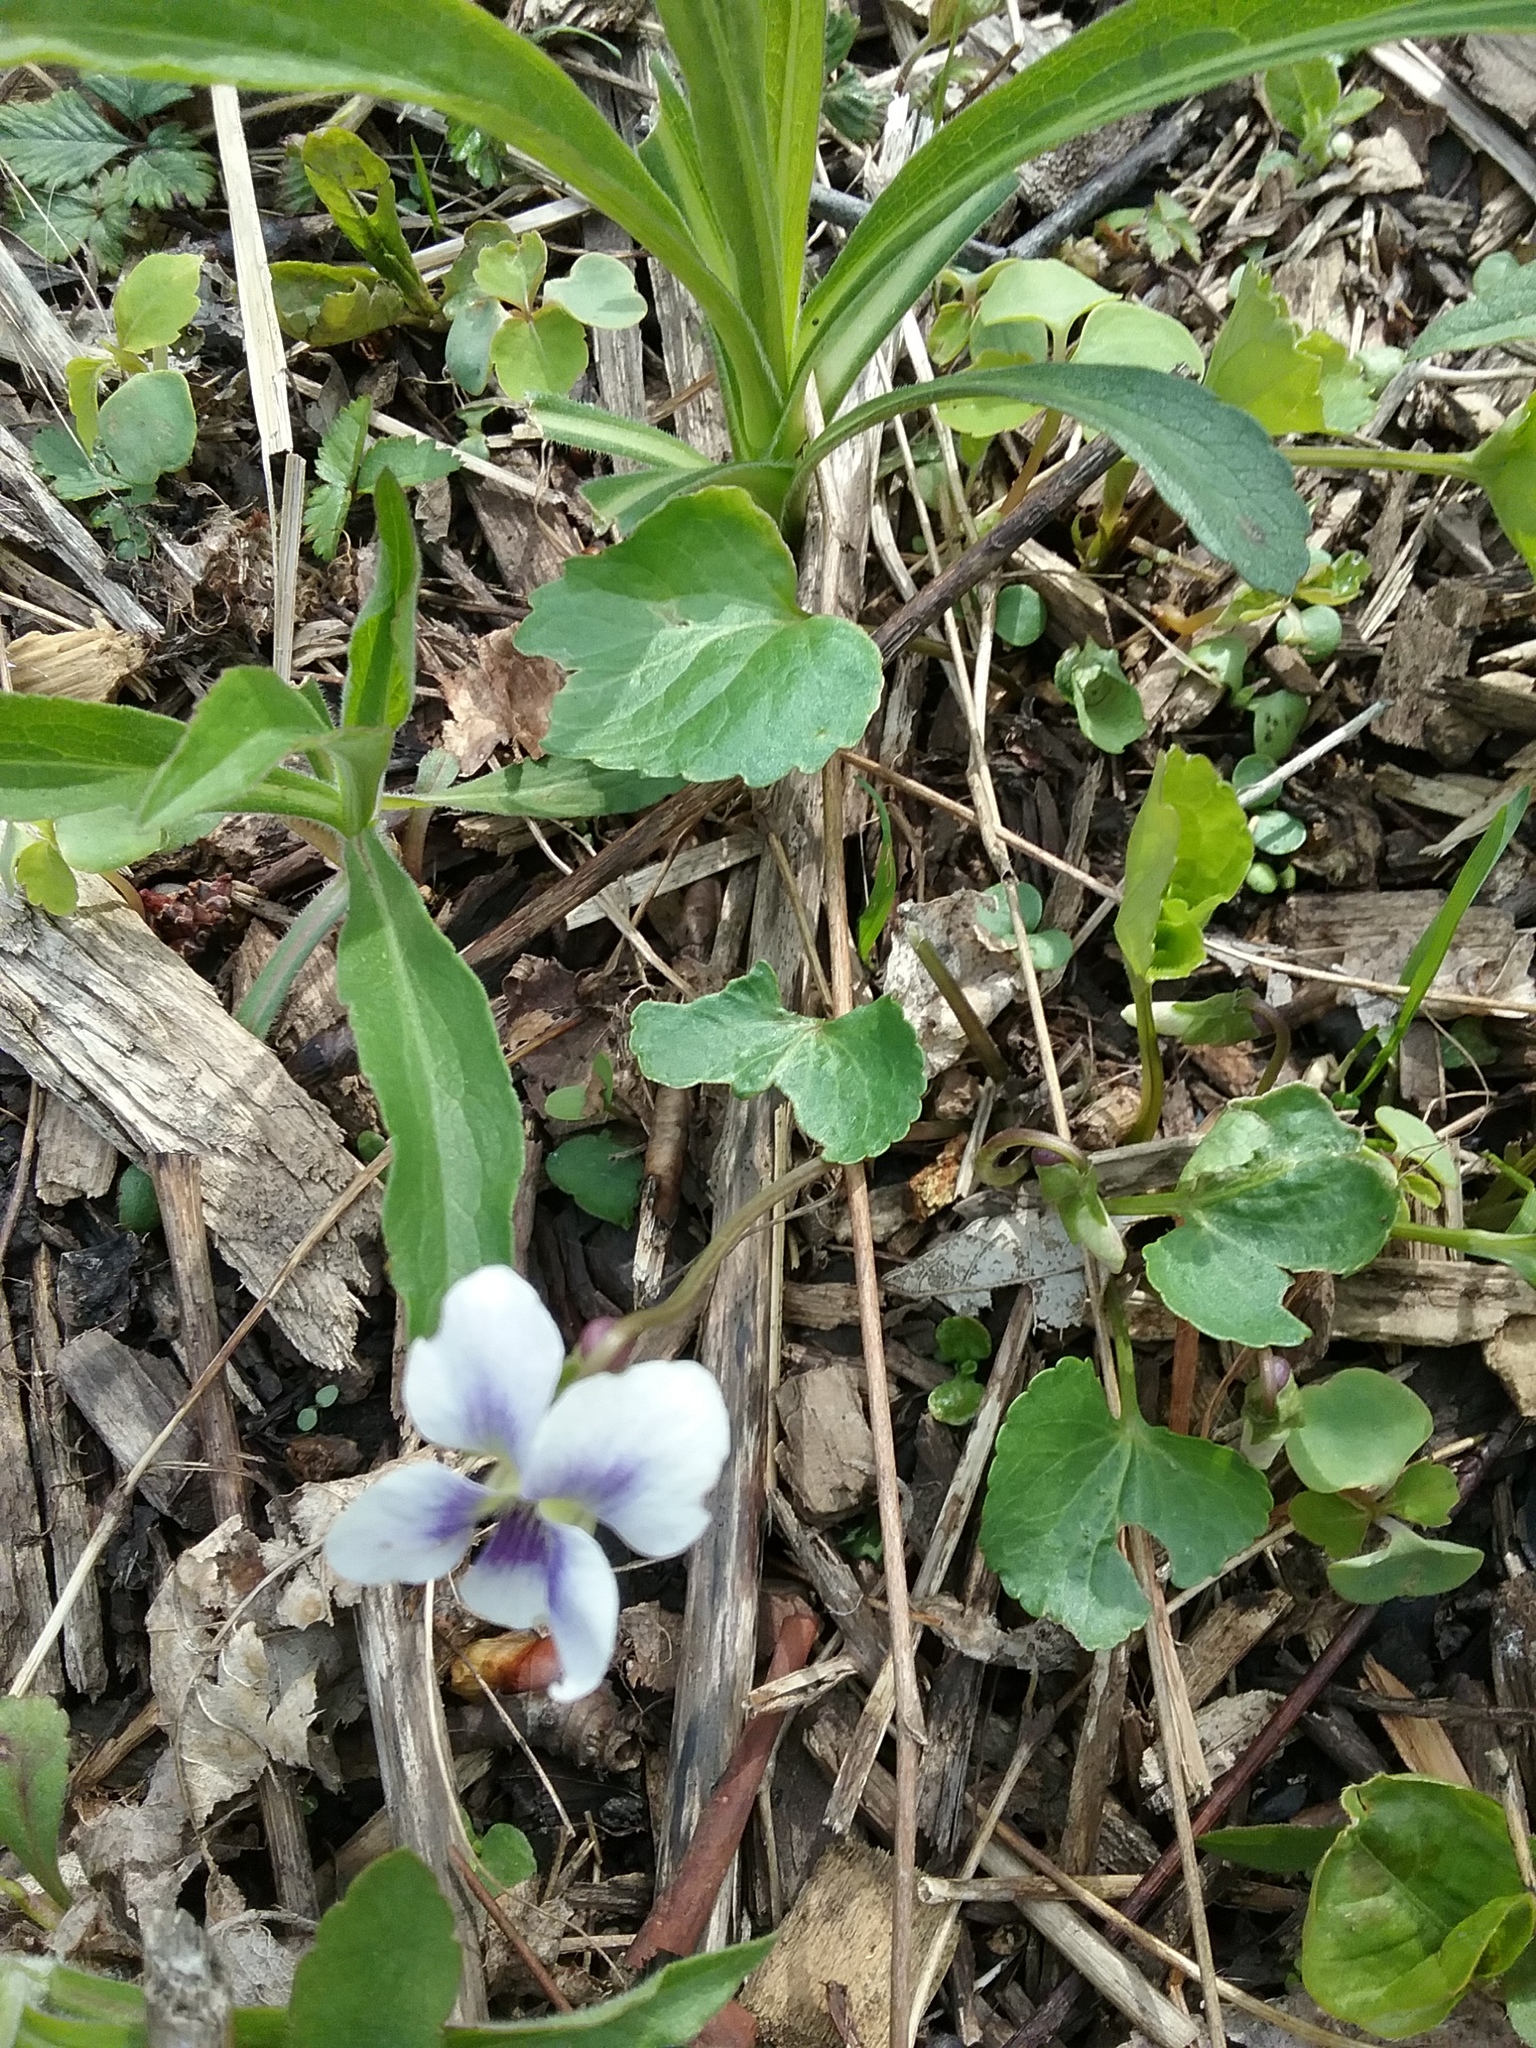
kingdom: Plantae
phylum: Tracheophyta
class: Magnoliopsida
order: Malpighiales
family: Violaceae
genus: Viola
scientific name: Viola sororia
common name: Dooryard violet
